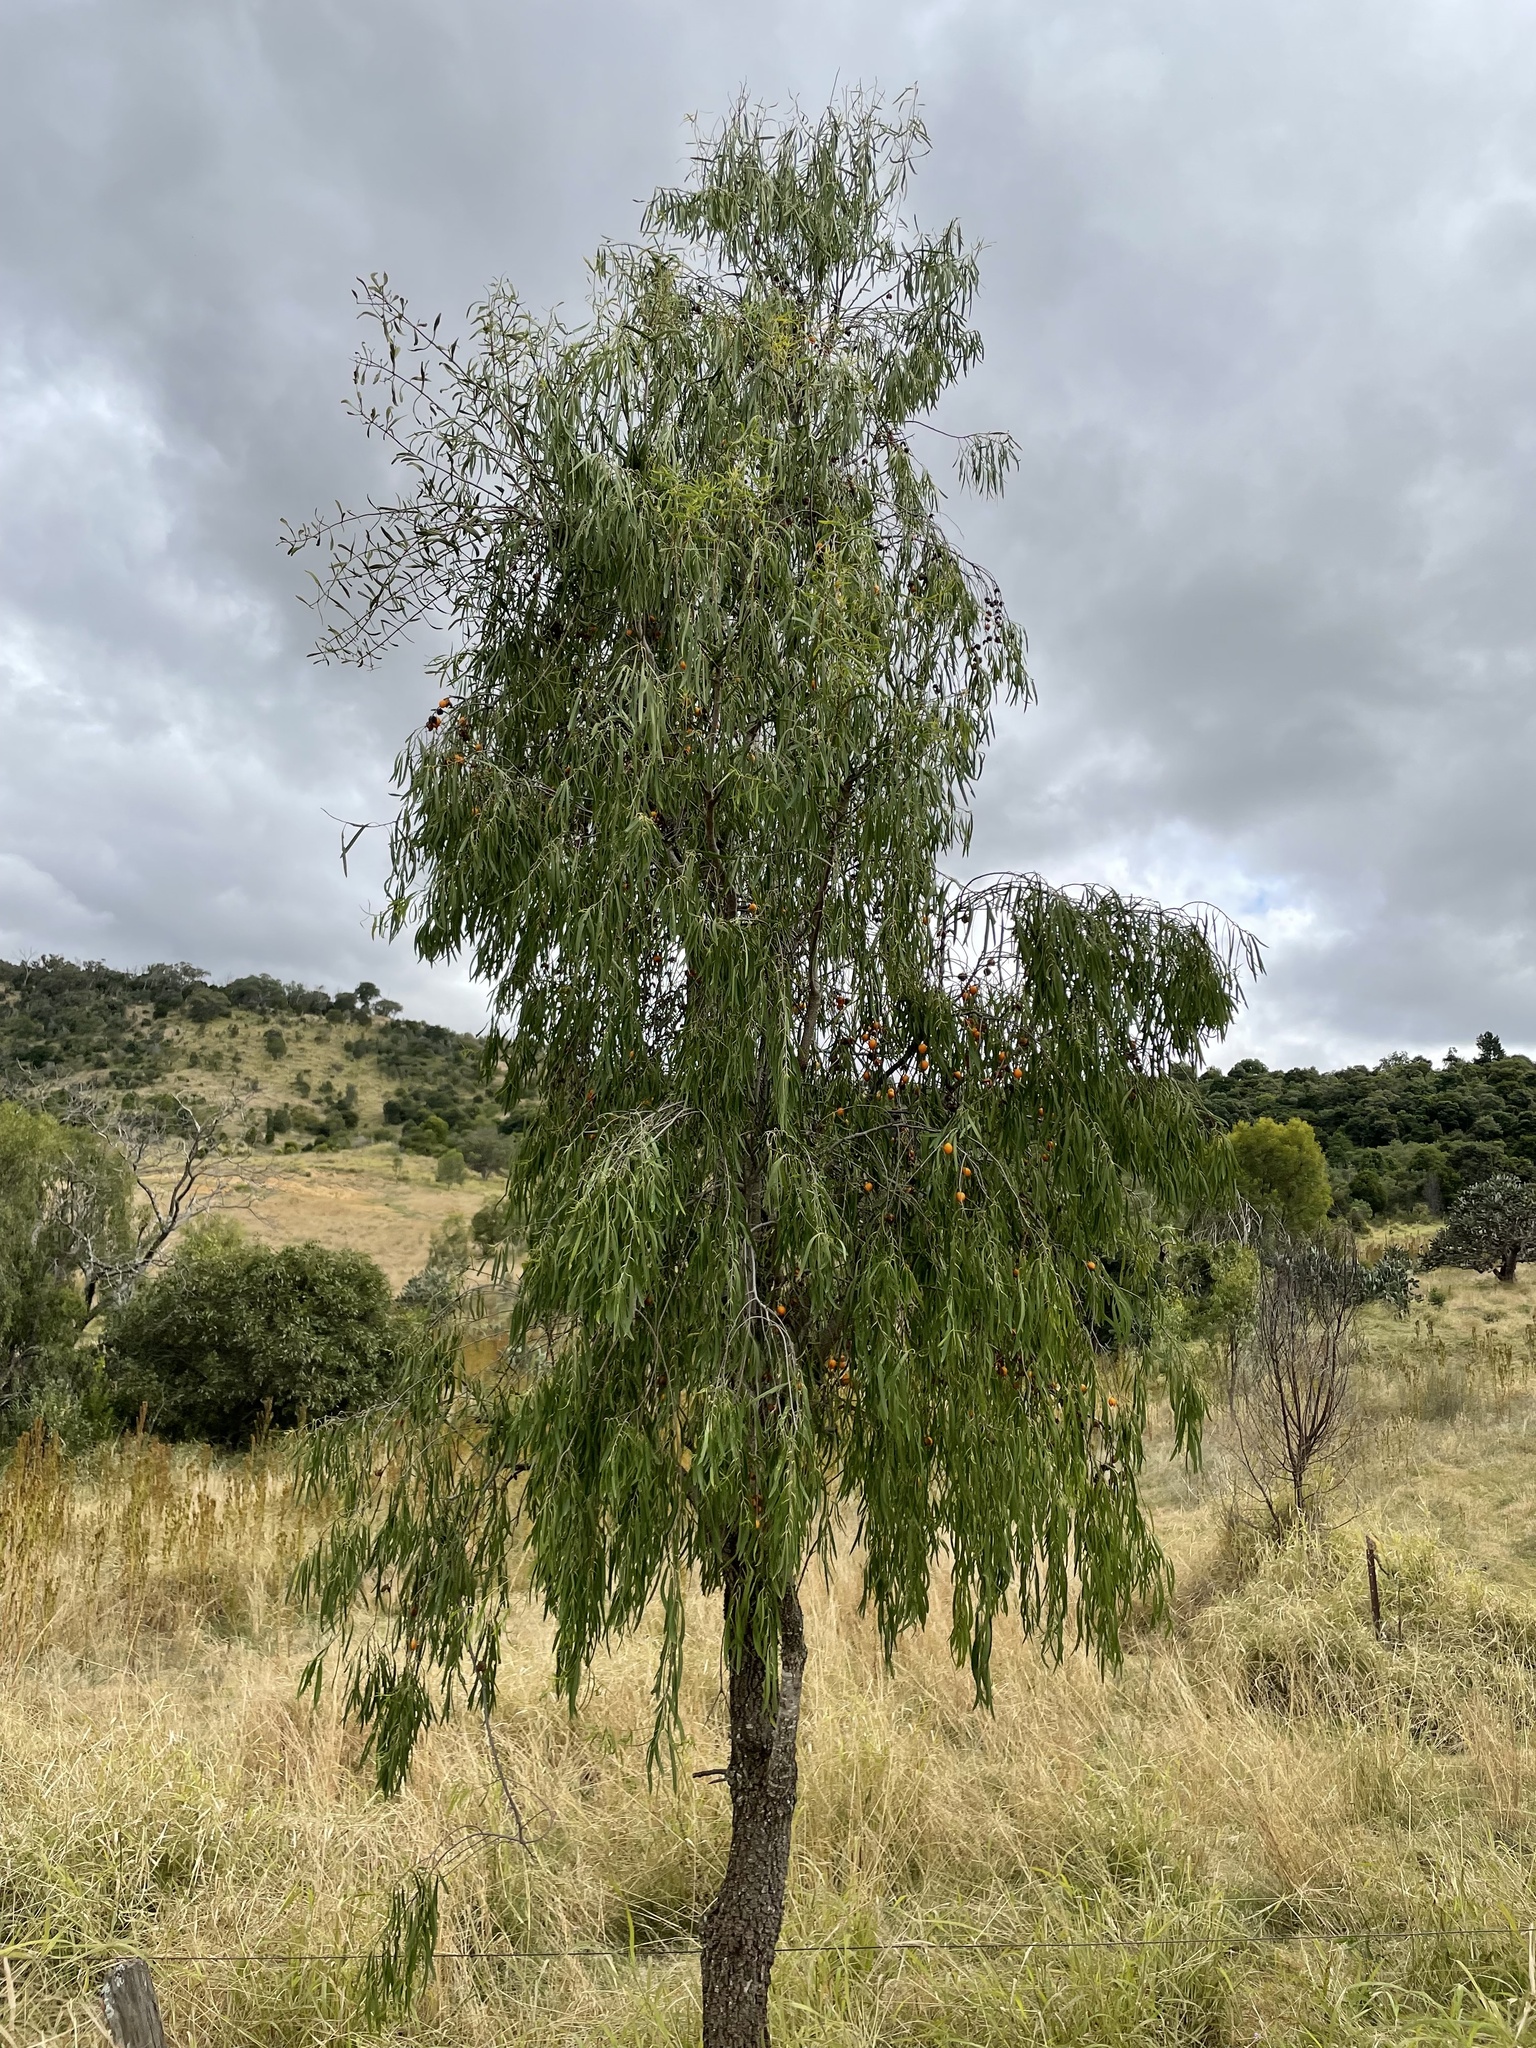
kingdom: Plantae
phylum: Tracheophyta
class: Magnoliopsida
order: Apiales
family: Pittosporaceae
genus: Pittosporum
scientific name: Pittosporum angustifolium
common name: Weeping pittosporum
